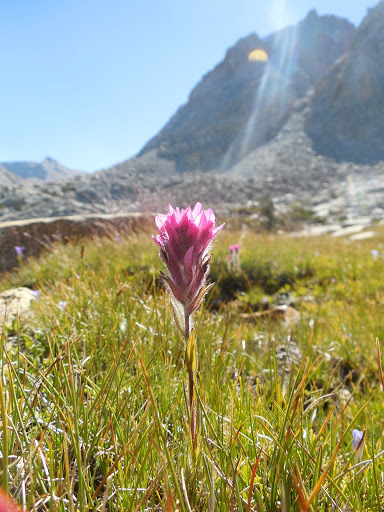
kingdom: Plantae
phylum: Tracheophyta
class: Magnoliopsida
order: Lamiales
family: Orobanchaceae
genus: Castilleja
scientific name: Castilleja lemmonii
